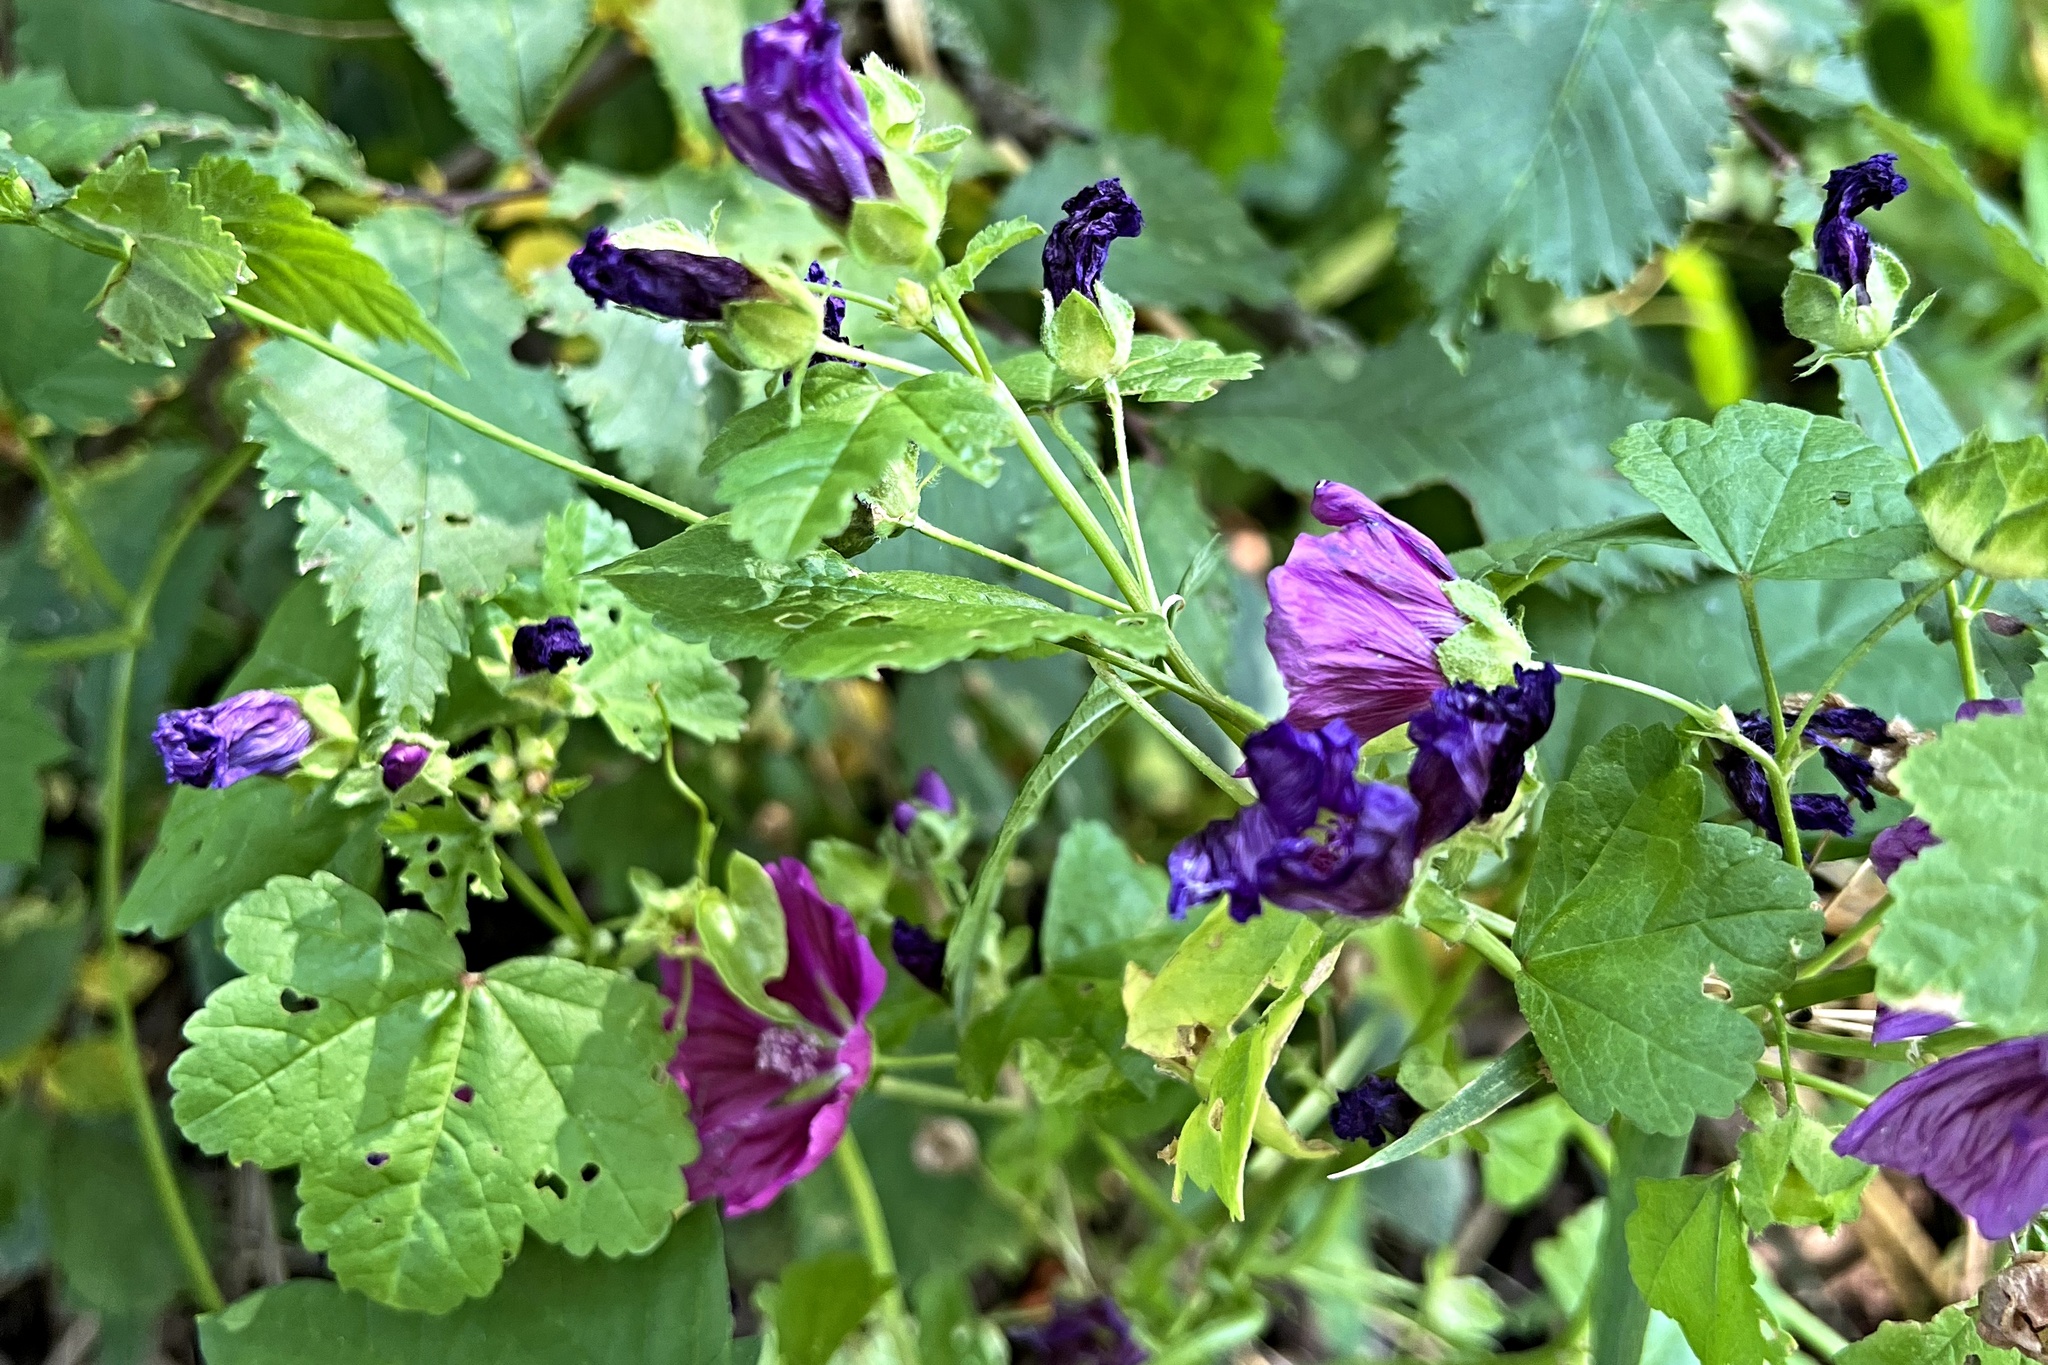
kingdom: Plantae
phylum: Tracheophyta
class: Magnoliopsida
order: Malvales
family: Malvaceae
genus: Malva
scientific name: Malva sylvestris
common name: Common mallow
